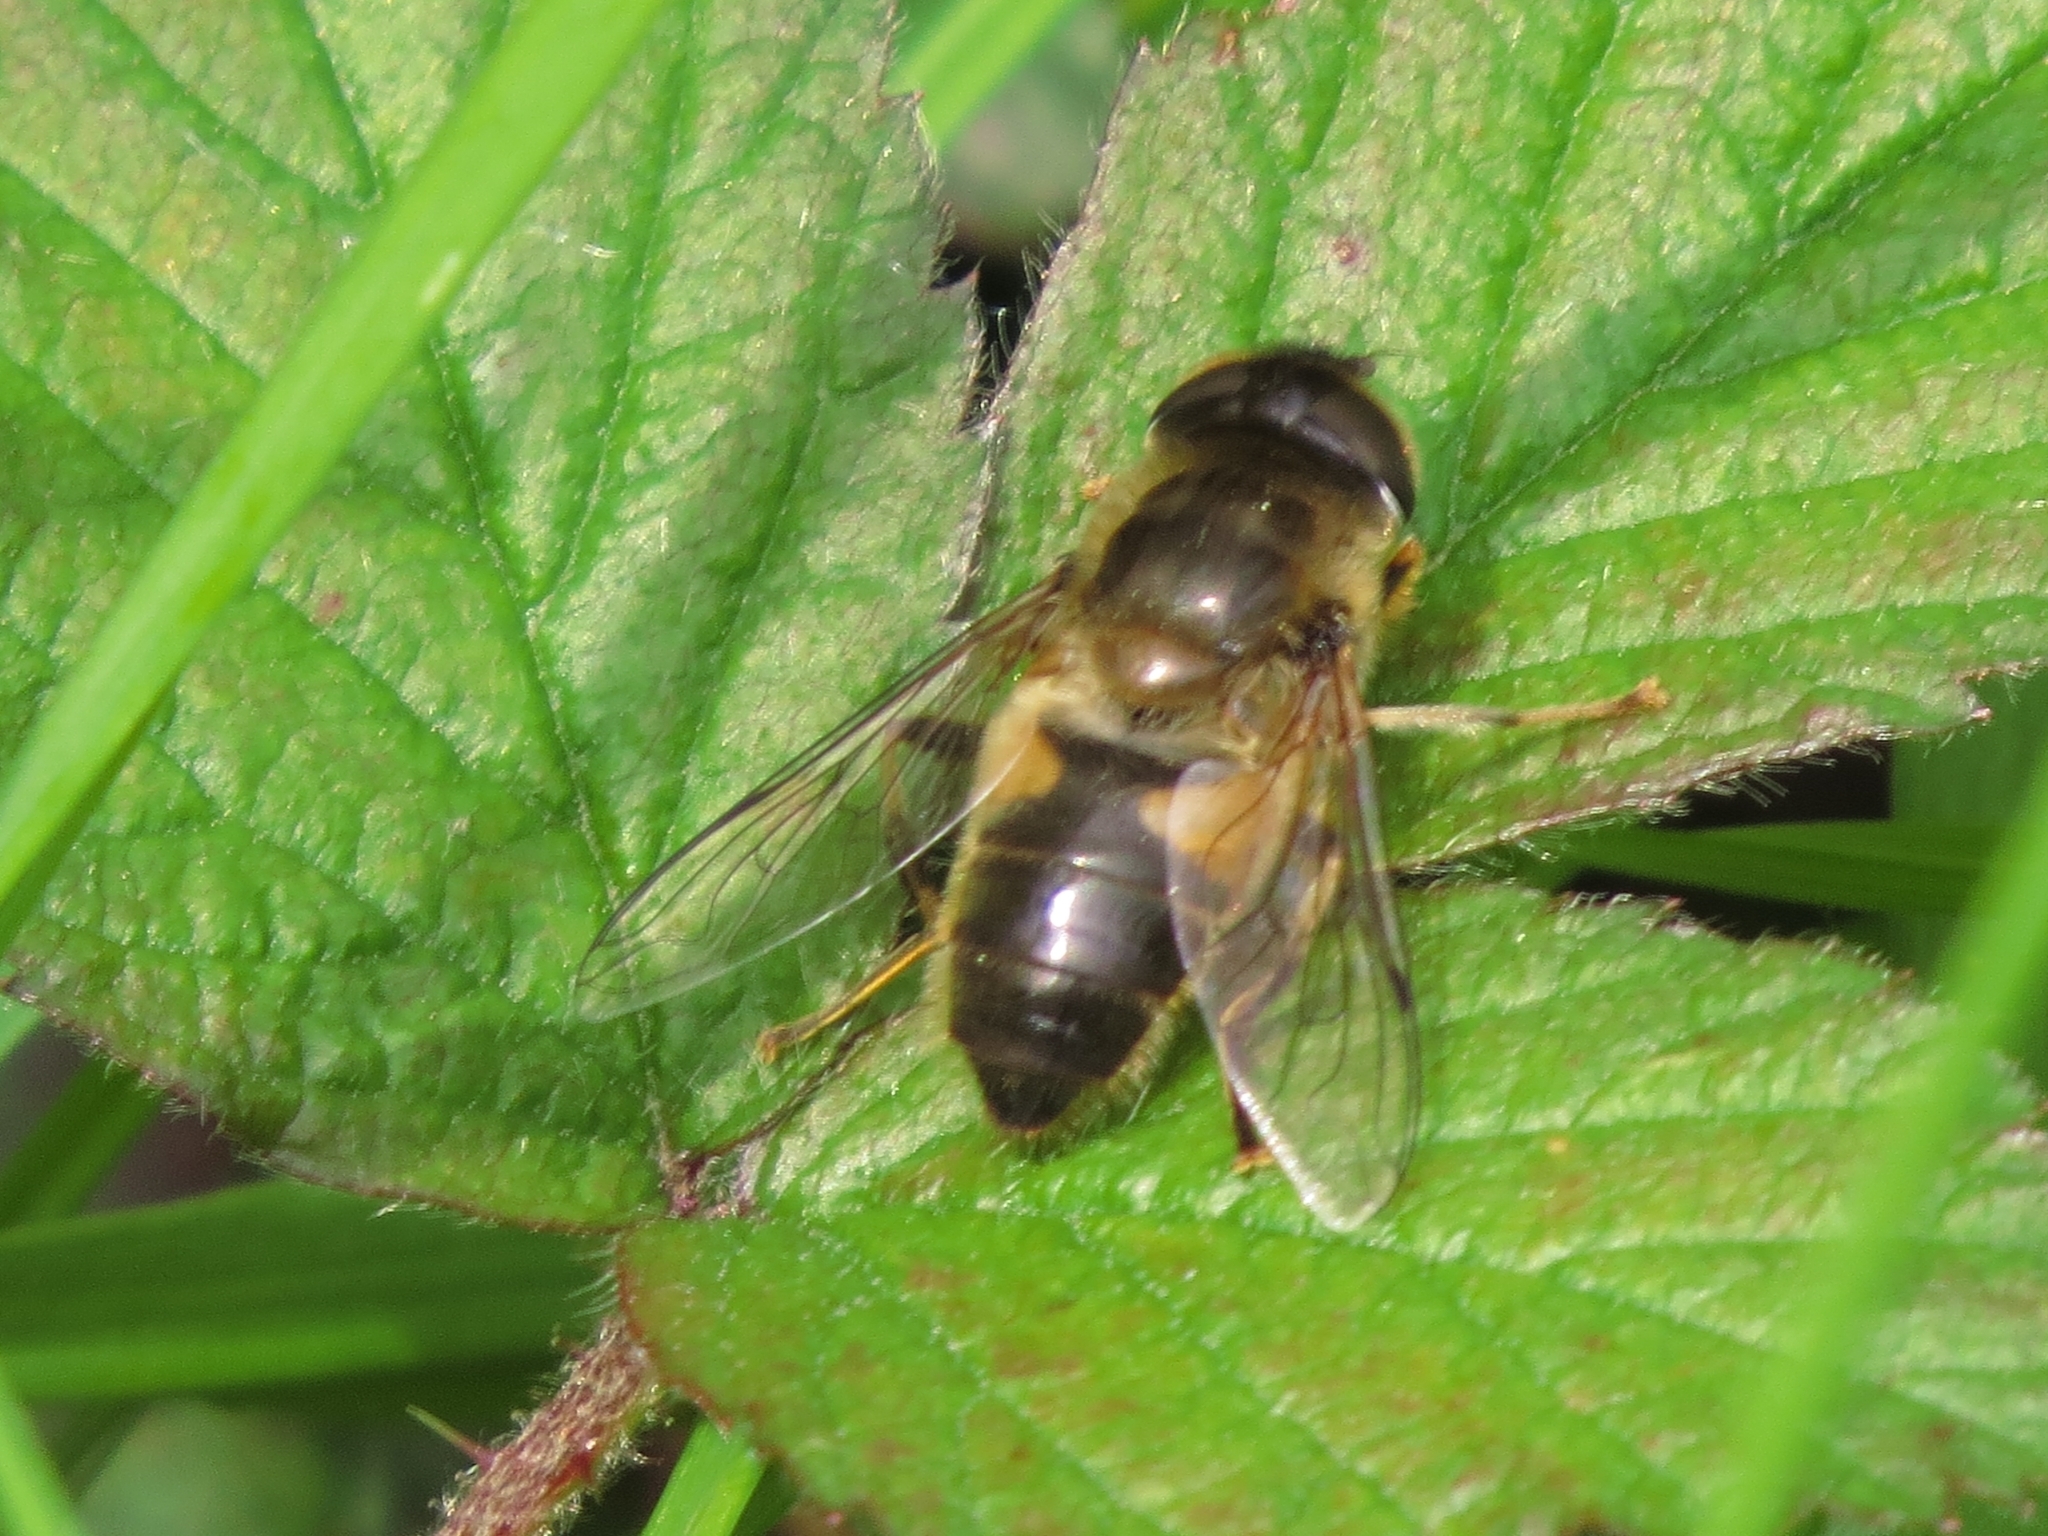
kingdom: Animalia
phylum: Arthropoda
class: Insecta
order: Diptera
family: Syrphidae
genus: Eristalis
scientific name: Eristalis pertinax
